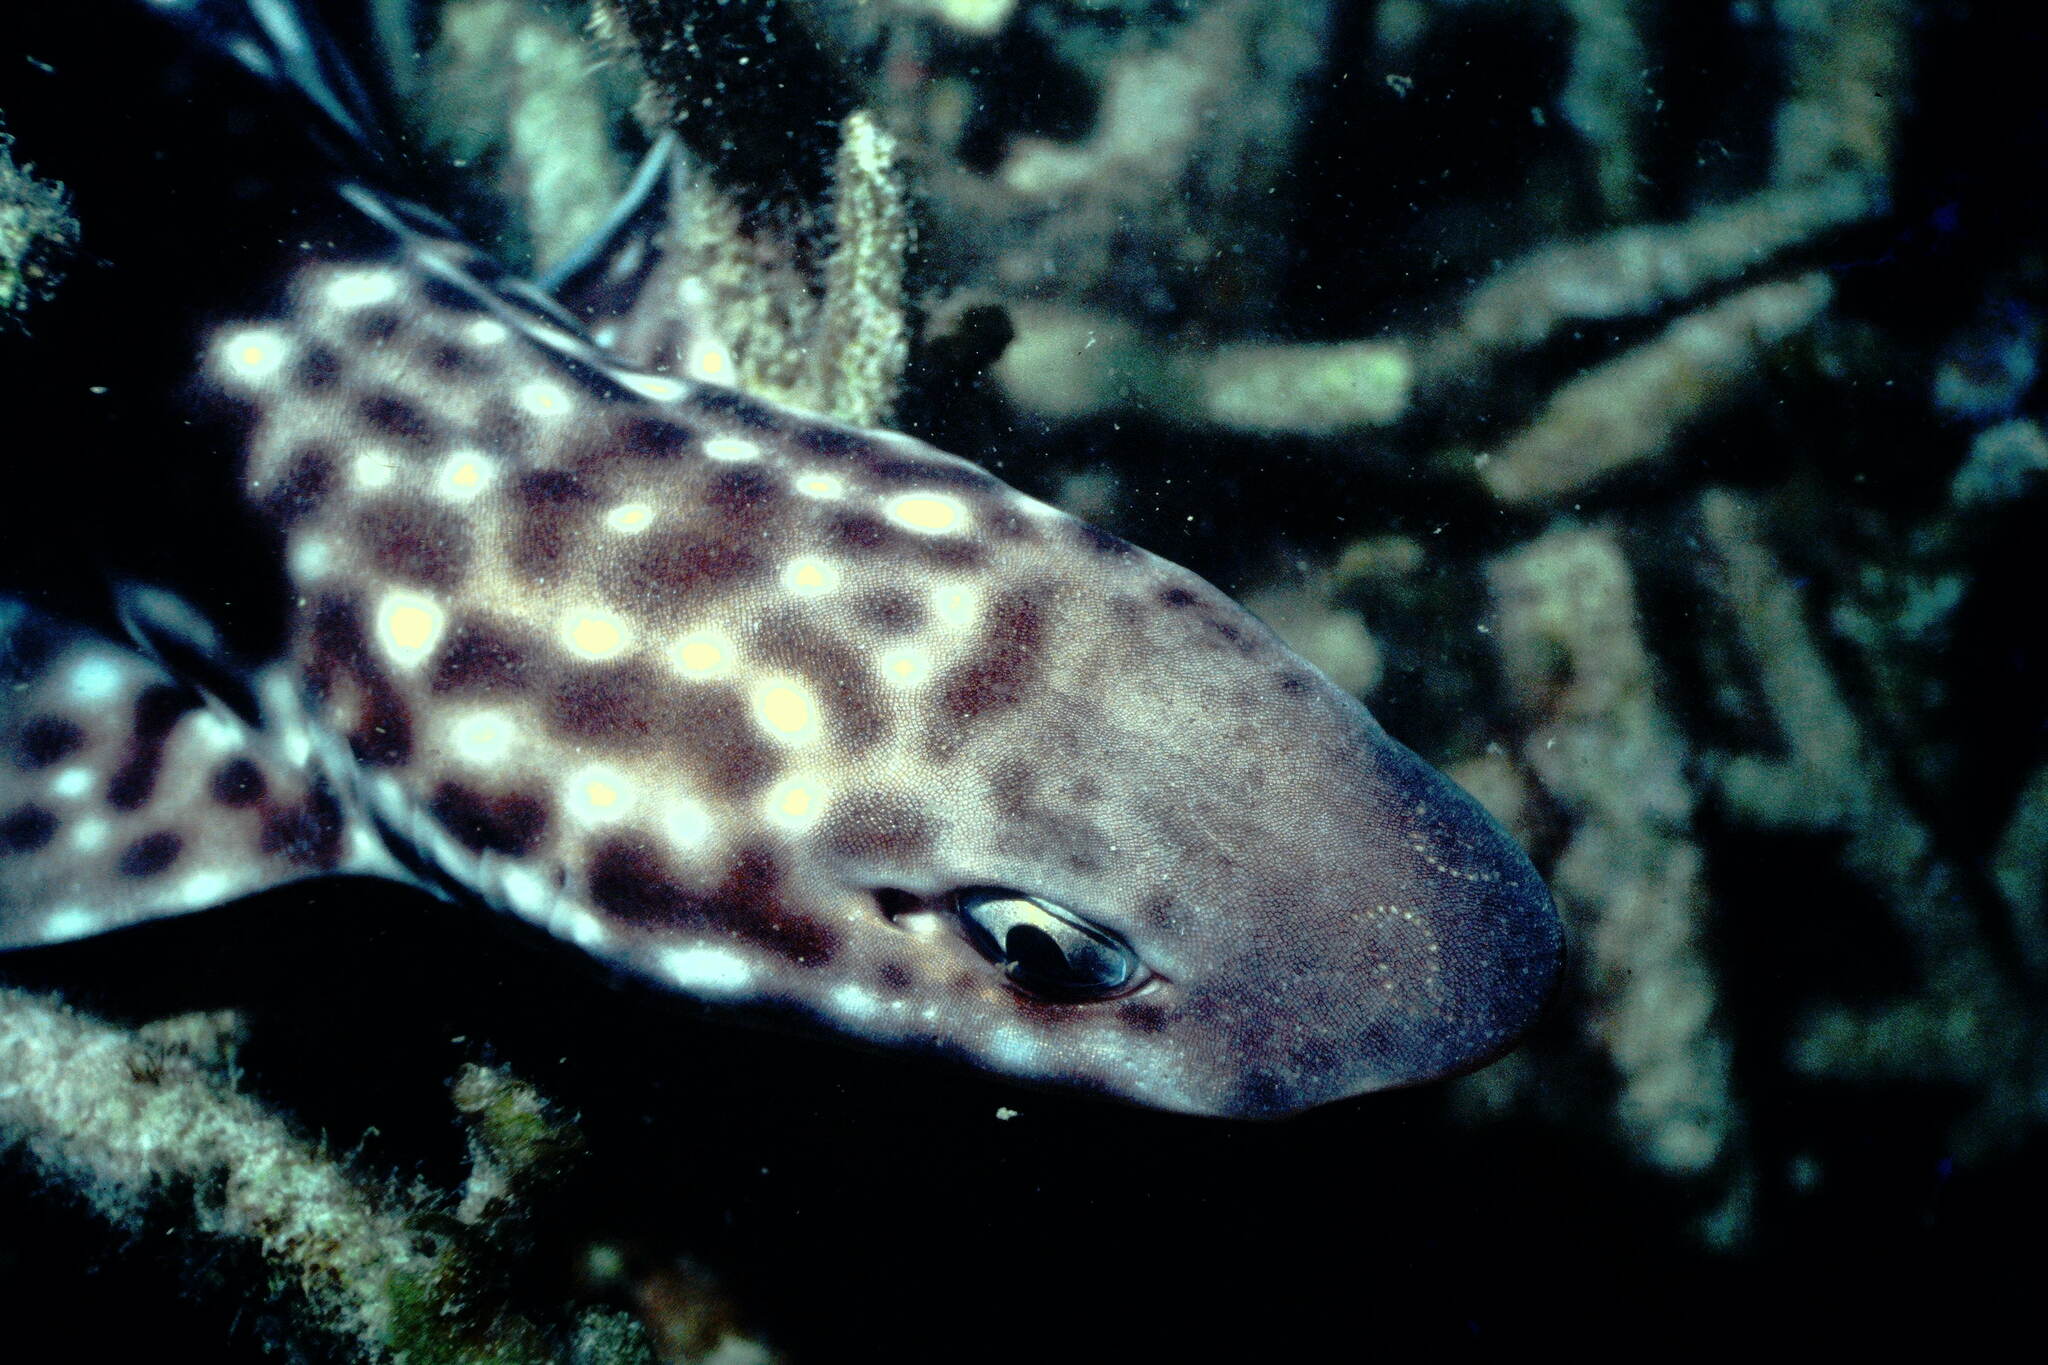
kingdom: Animalia
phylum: Chordata
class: Elasmobranchii
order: Carcharhiniformes
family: Scyliorhinidae
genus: Atelomycterus
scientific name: Atelomycterus marmoratus
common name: Coral catshark
